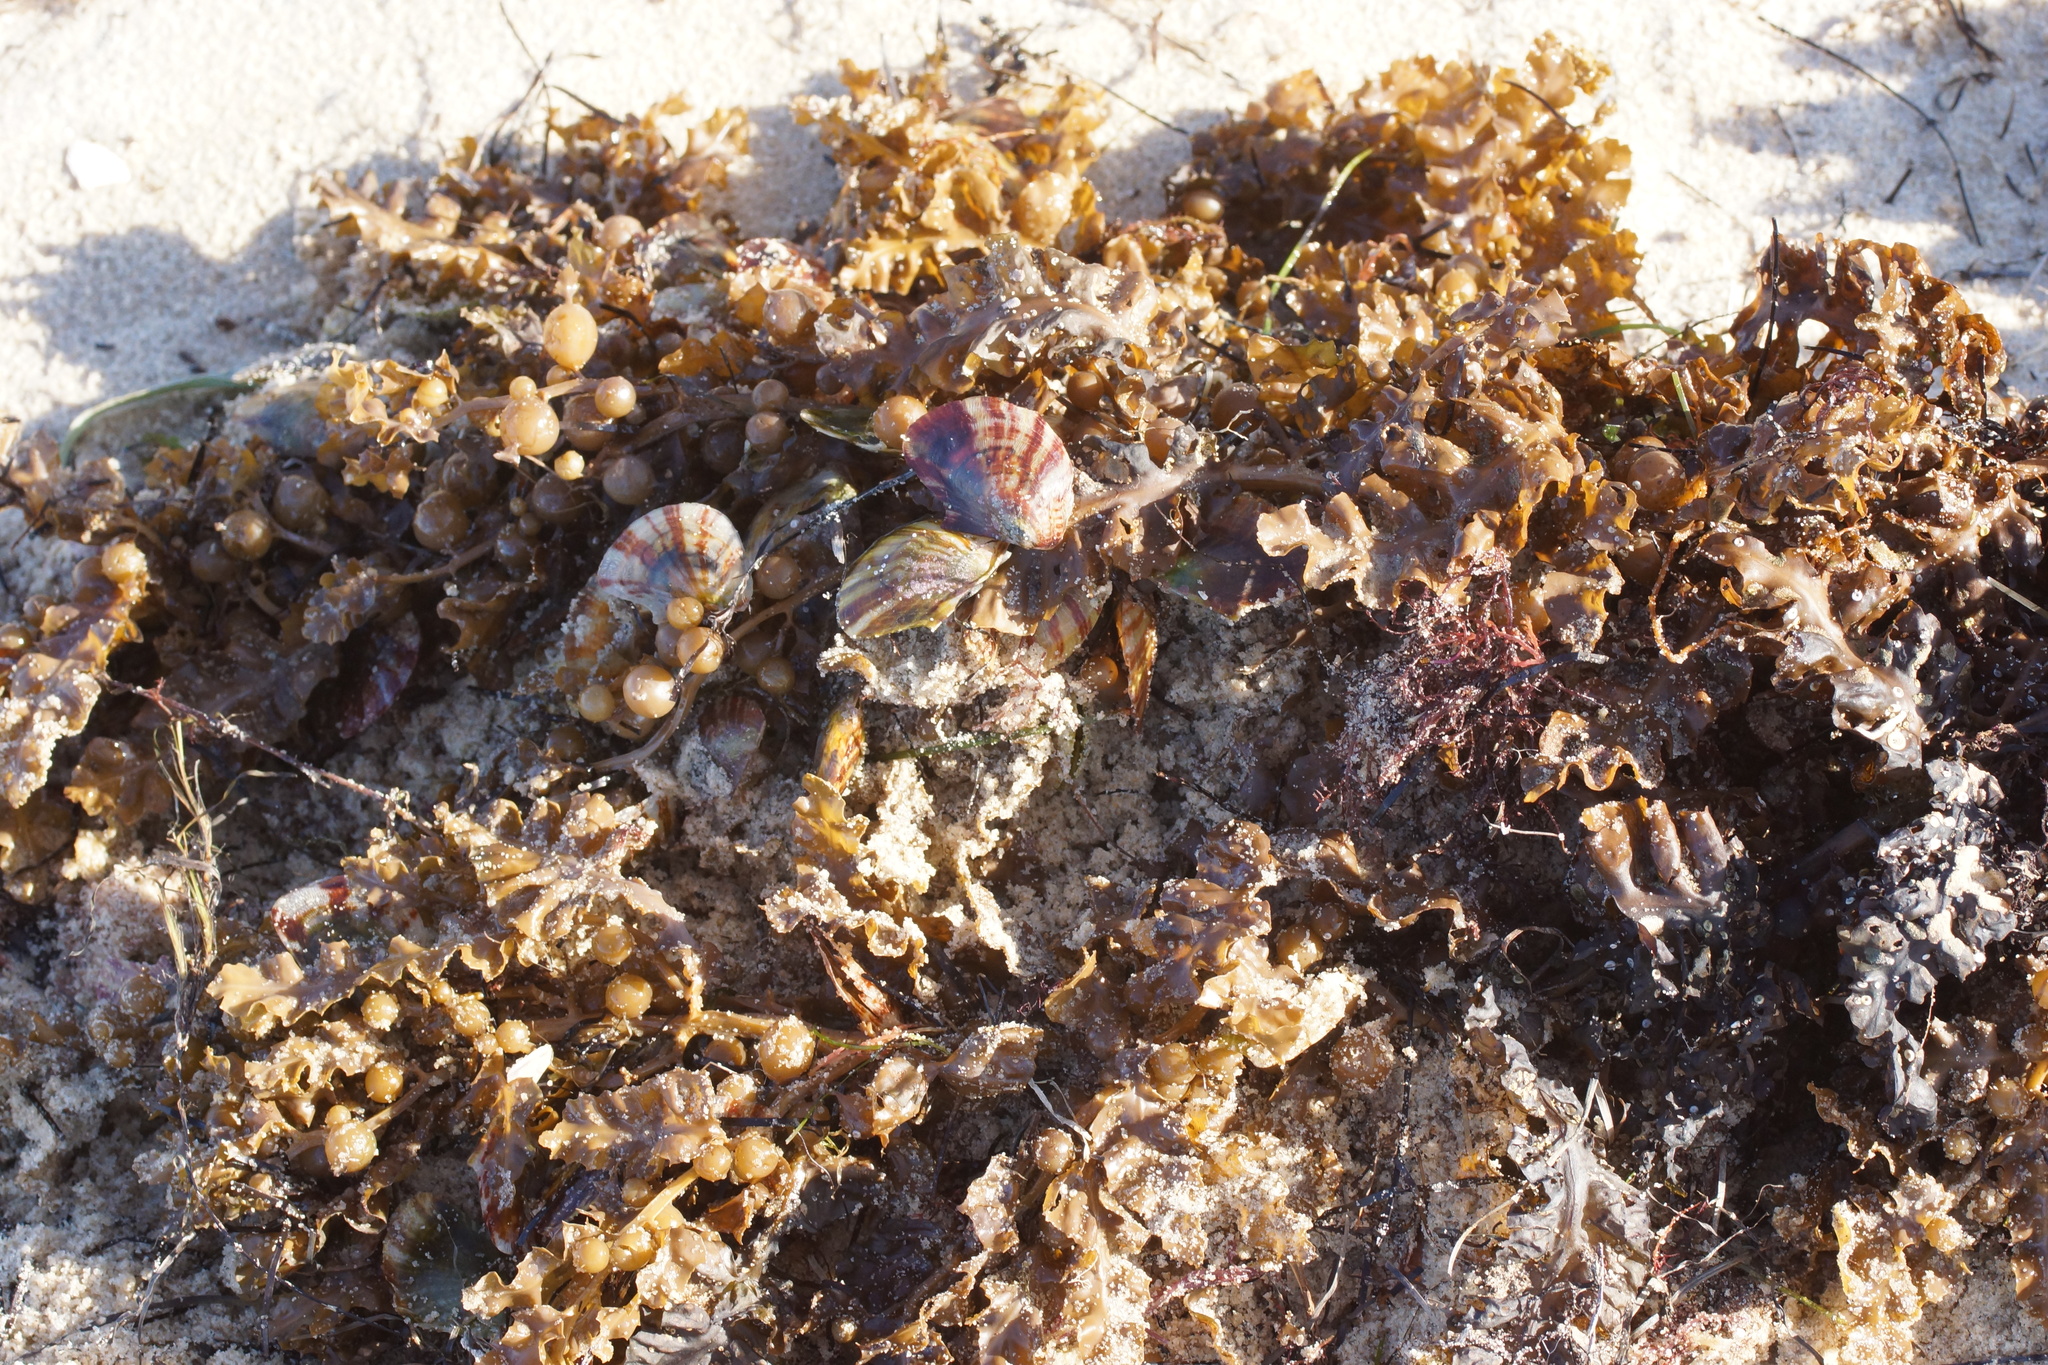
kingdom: Animalia
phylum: Mollusca
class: Bivalvia
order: Ostreida
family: Vulsellidae
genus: Electroma
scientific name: Electroma papilionacea
